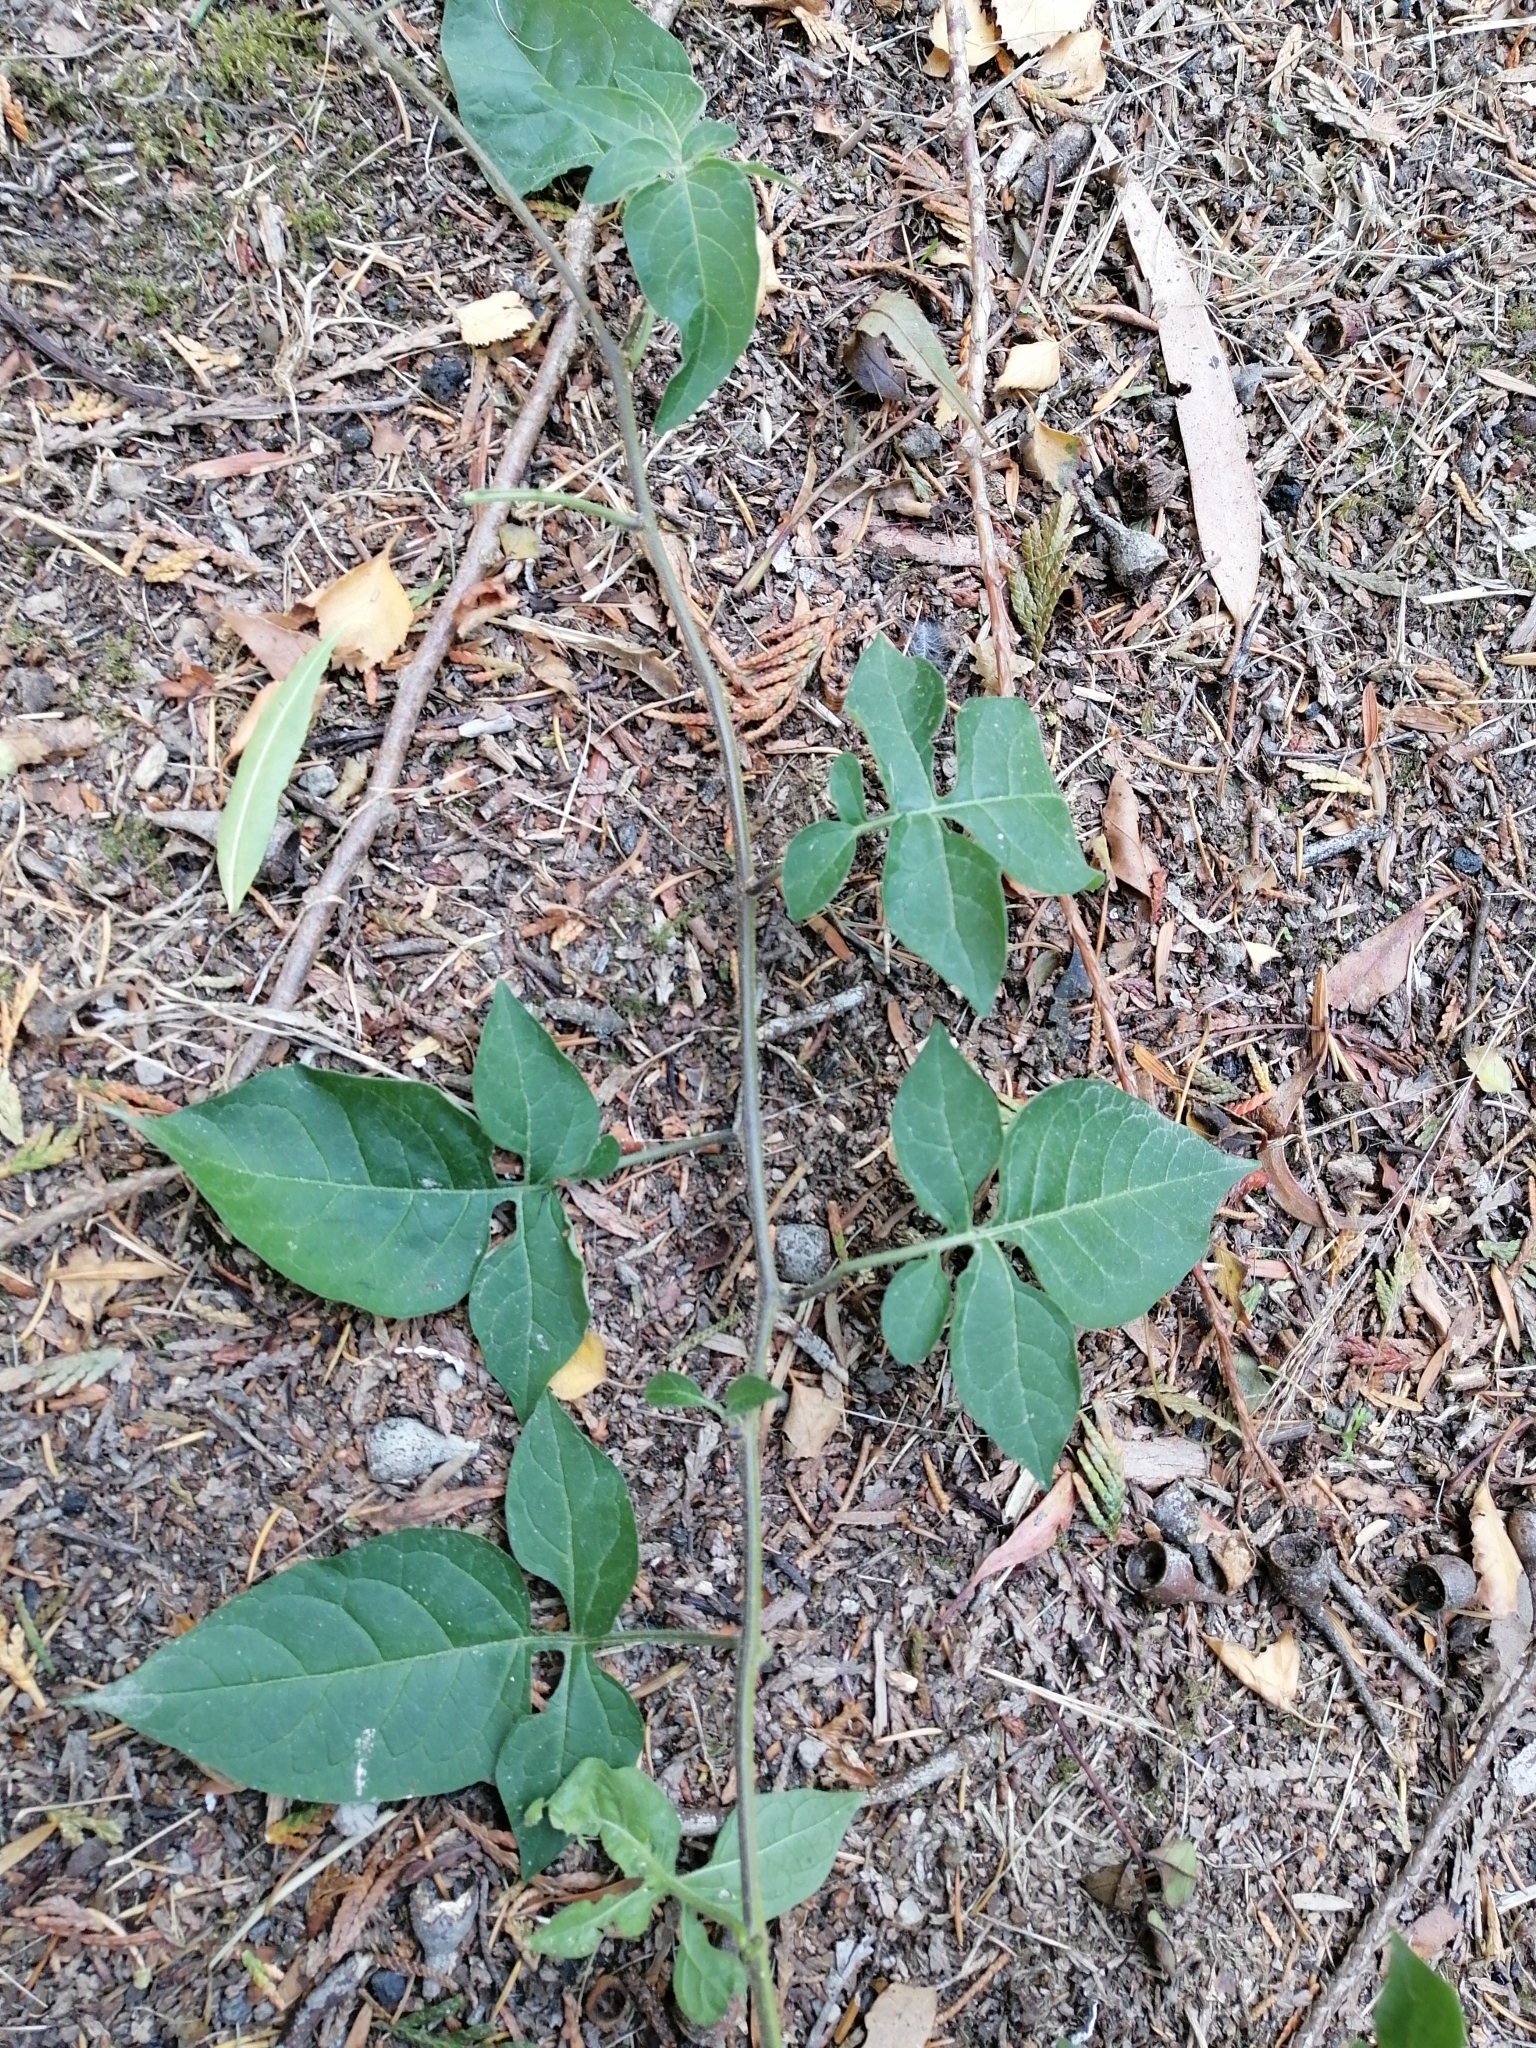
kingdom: Plantae
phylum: Tracheophyta
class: Magnoliopsida
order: Solanales
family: Solanaceae
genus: Solanum
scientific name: Solanum dulcamara
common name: Climbing nightshade
